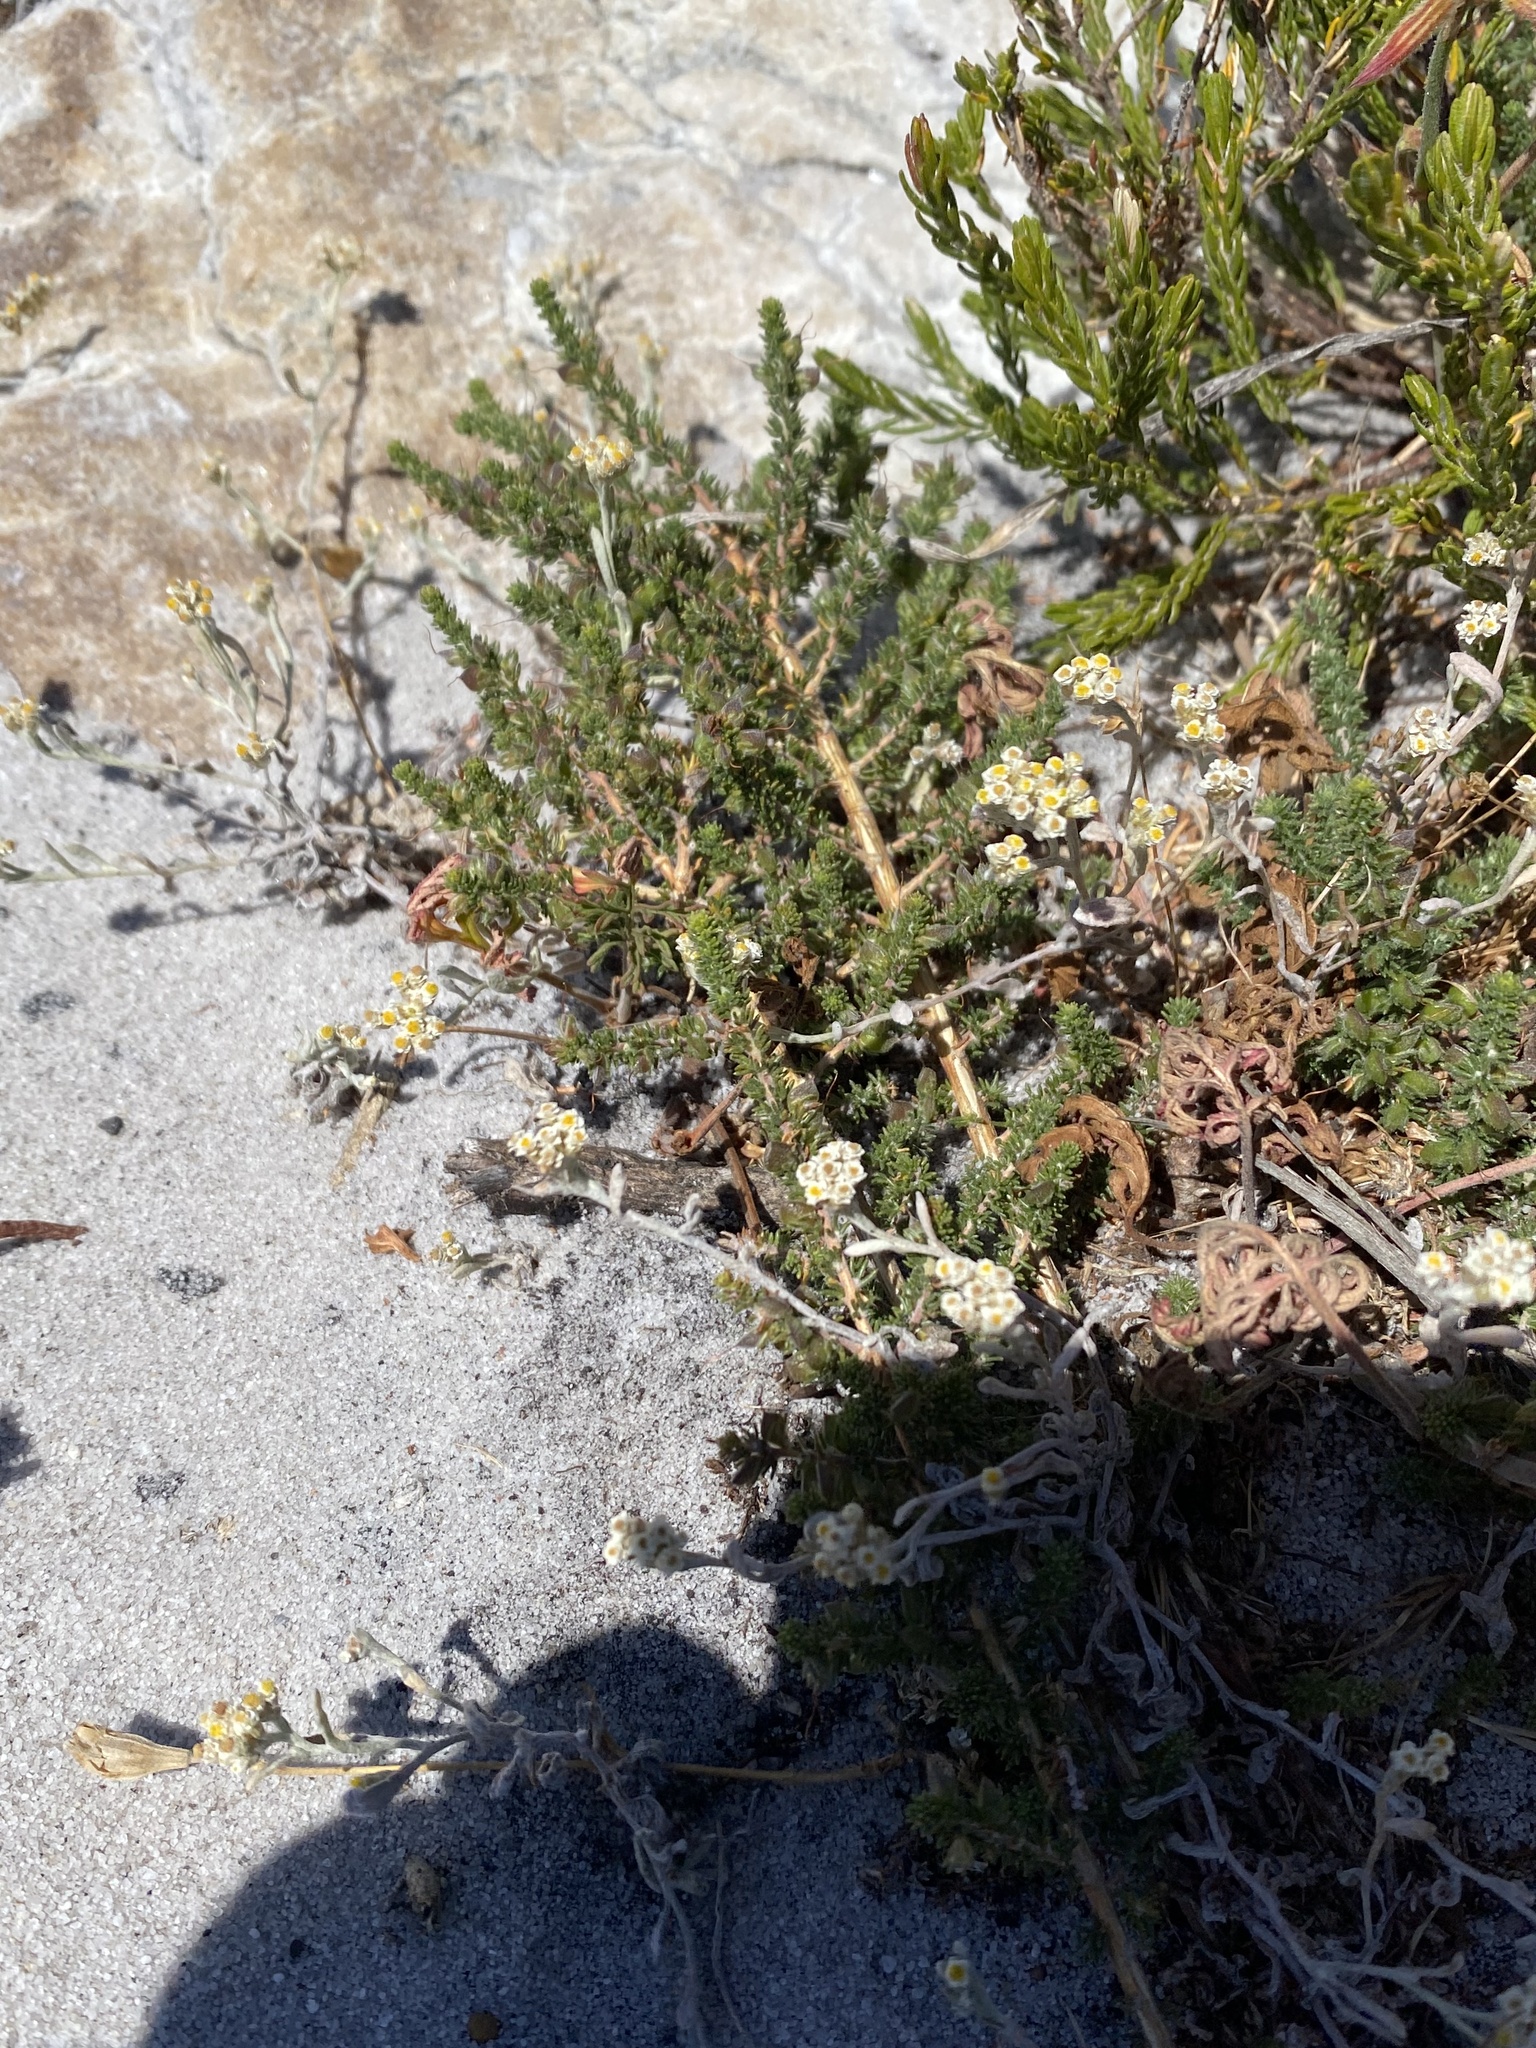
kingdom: Plantae
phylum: Tracheophyta
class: Magnoliopsida
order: Geraniales
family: Geraniaceae
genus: Pelargonium
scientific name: Pelargonium suburbanum
